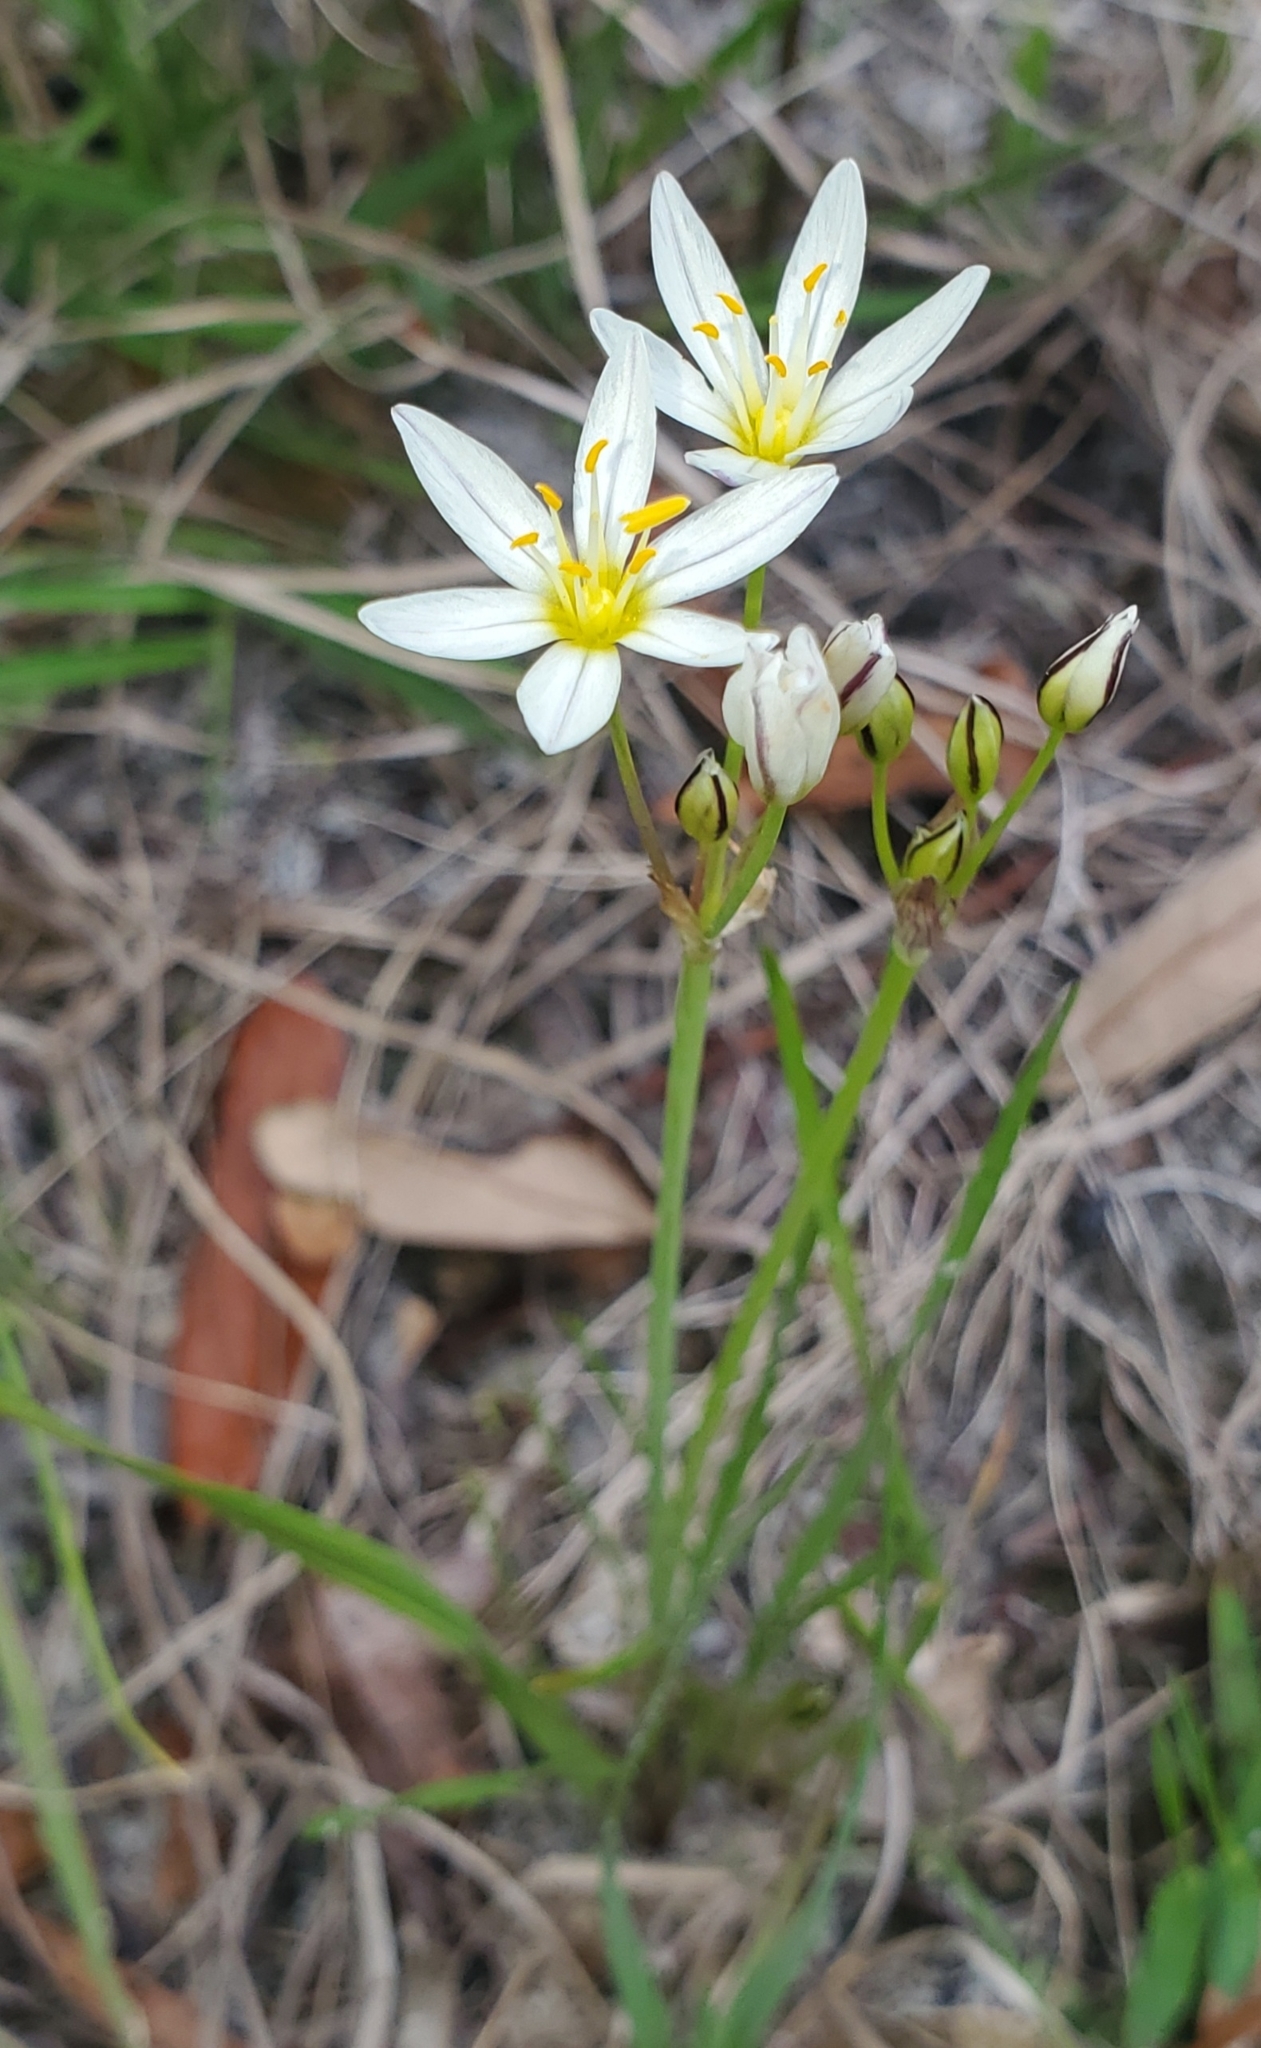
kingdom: Plantae
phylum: Tracheophyta
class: Liliopsida
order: Asparagales
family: Amaryllidaceae
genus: Nothoscordum
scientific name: Nothoscordum bivalve
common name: Crow-poison
